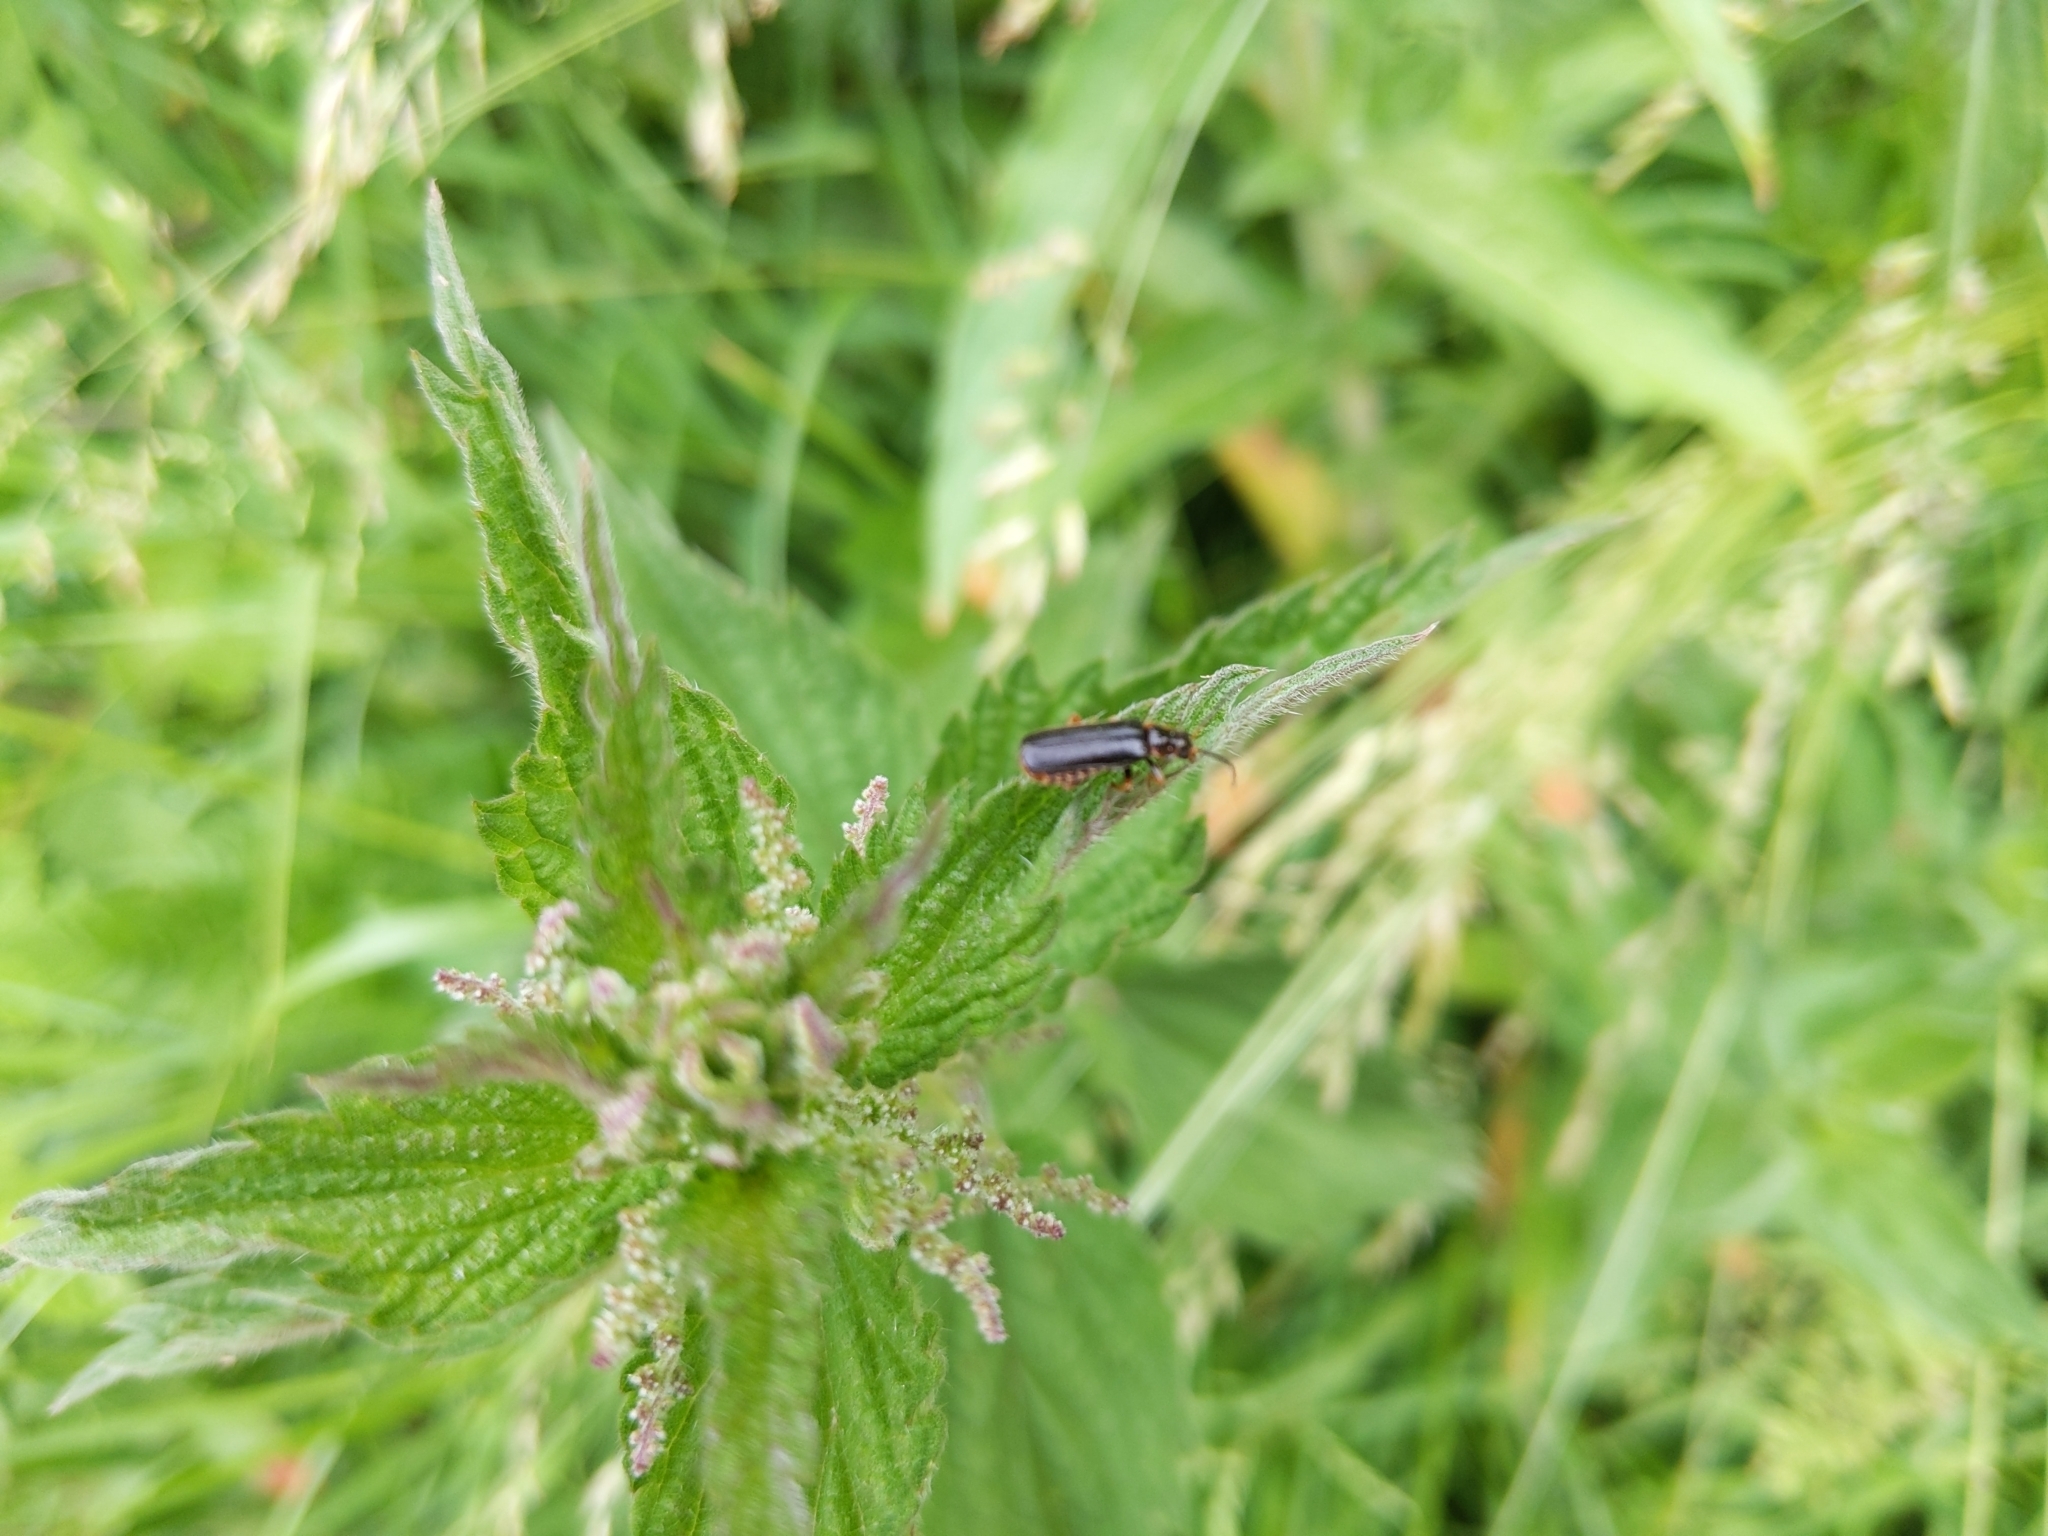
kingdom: Animalia
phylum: Arthropoda
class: Insecta
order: Coleoptera
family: Cantharidae
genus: Cantharis
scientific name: Cantharis flavilabris
